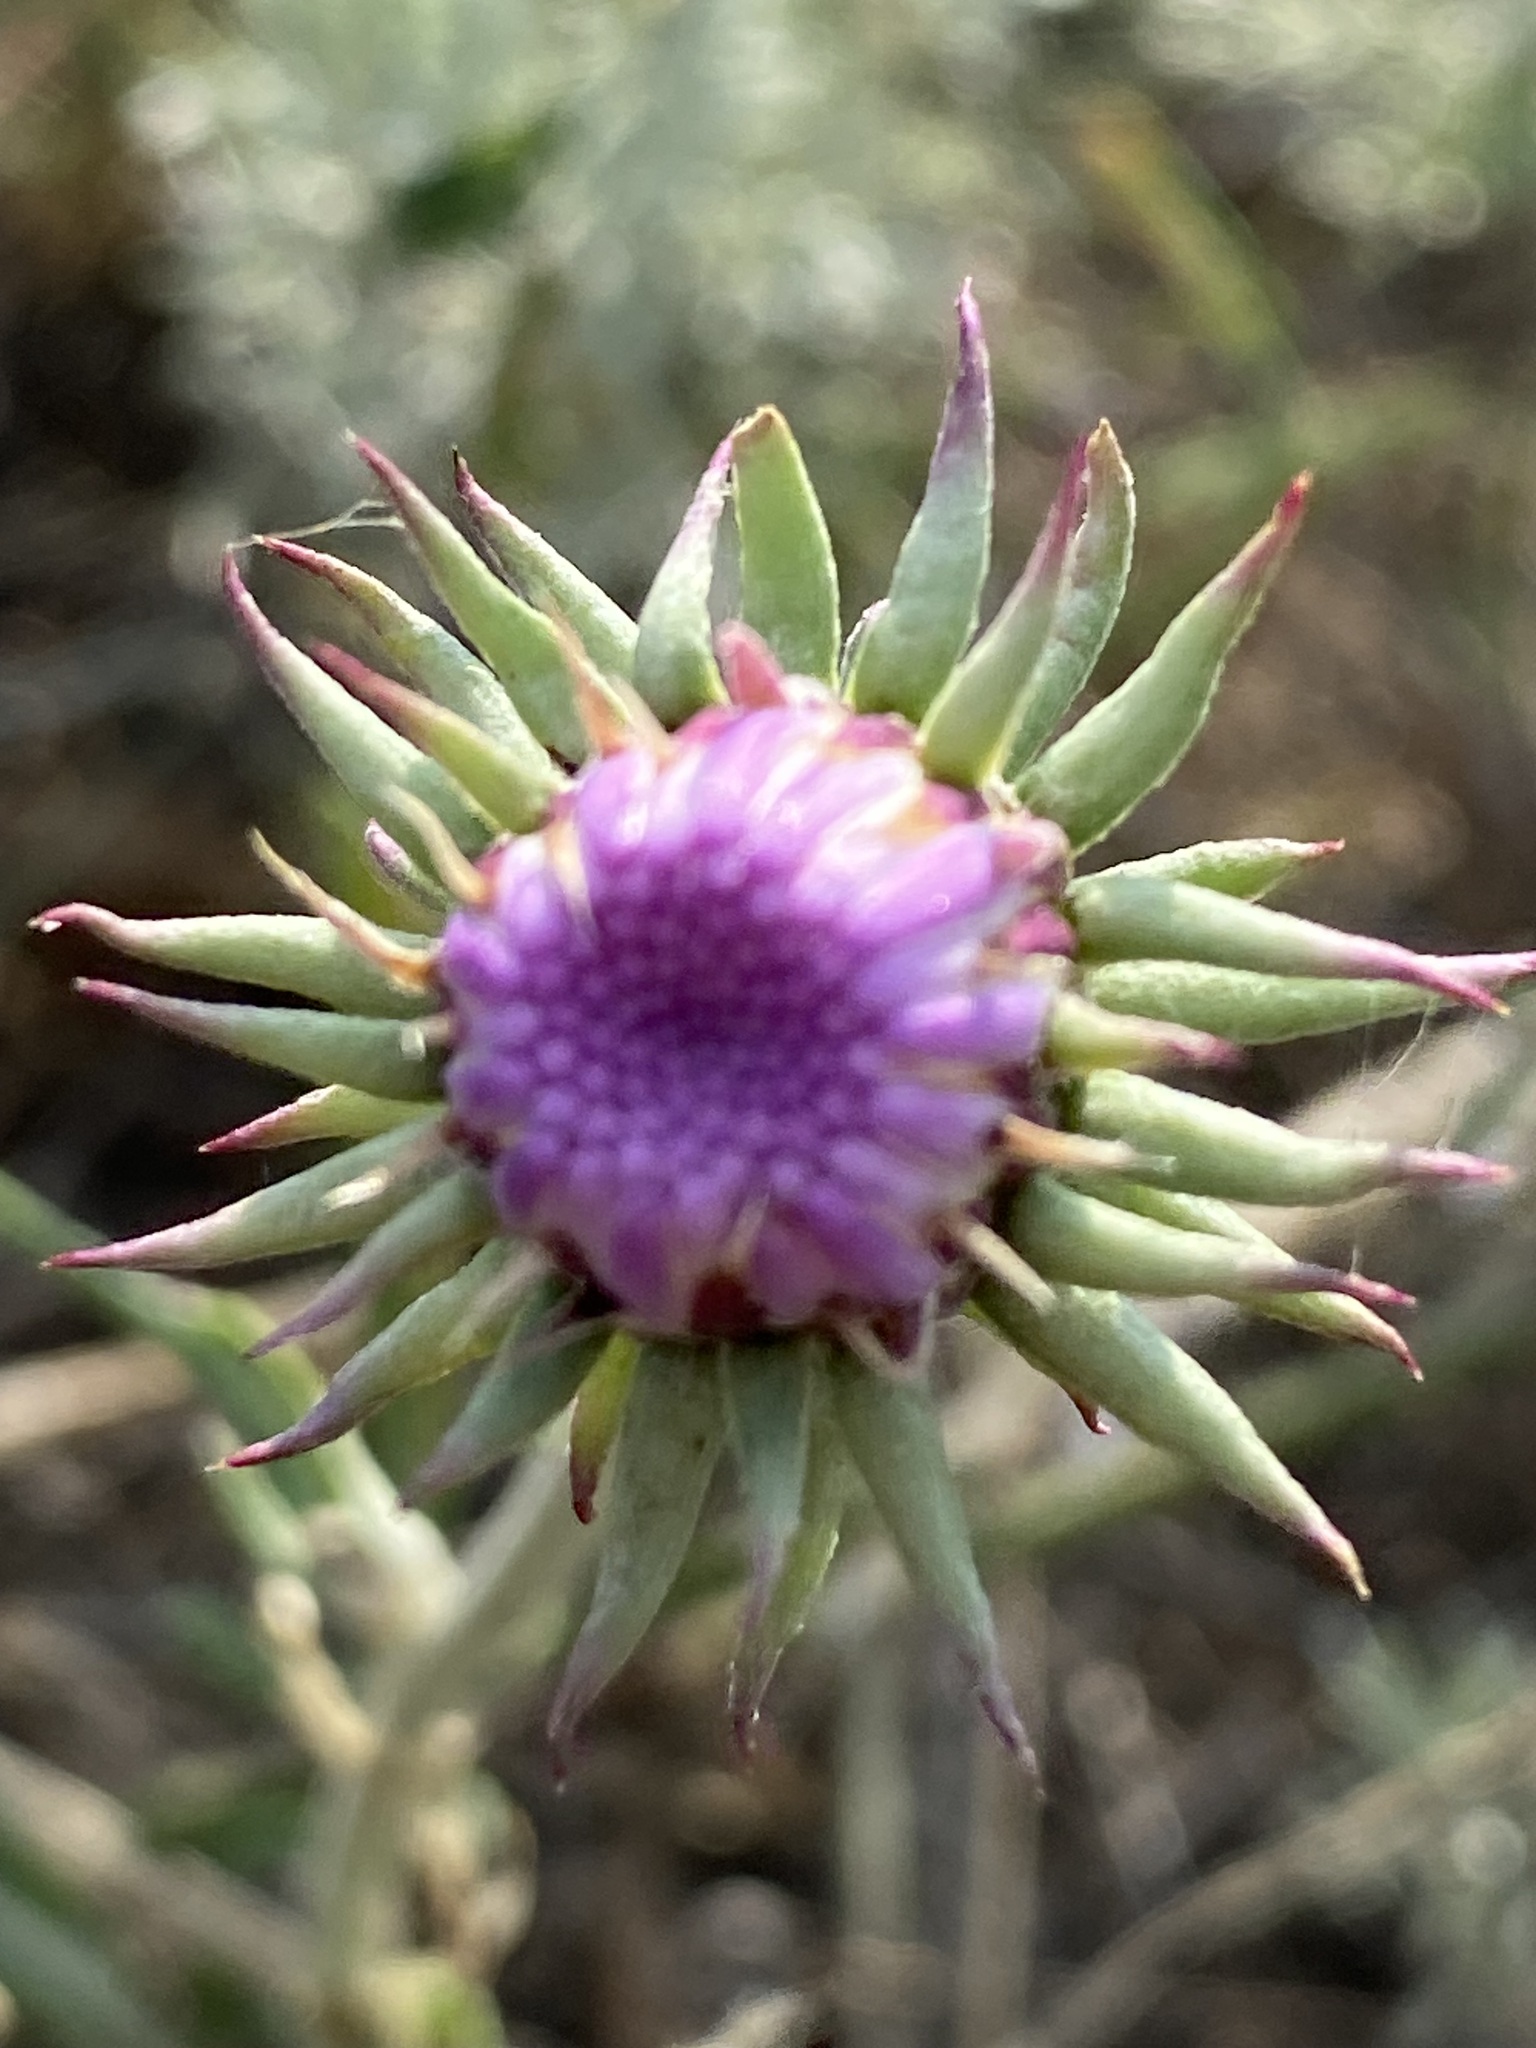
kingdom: Plantae
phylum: Tracheophyta
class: Magnoliopsida
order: Asterales
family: Asteraceae
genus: Jurinea
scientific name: Jurinea cyanoides
